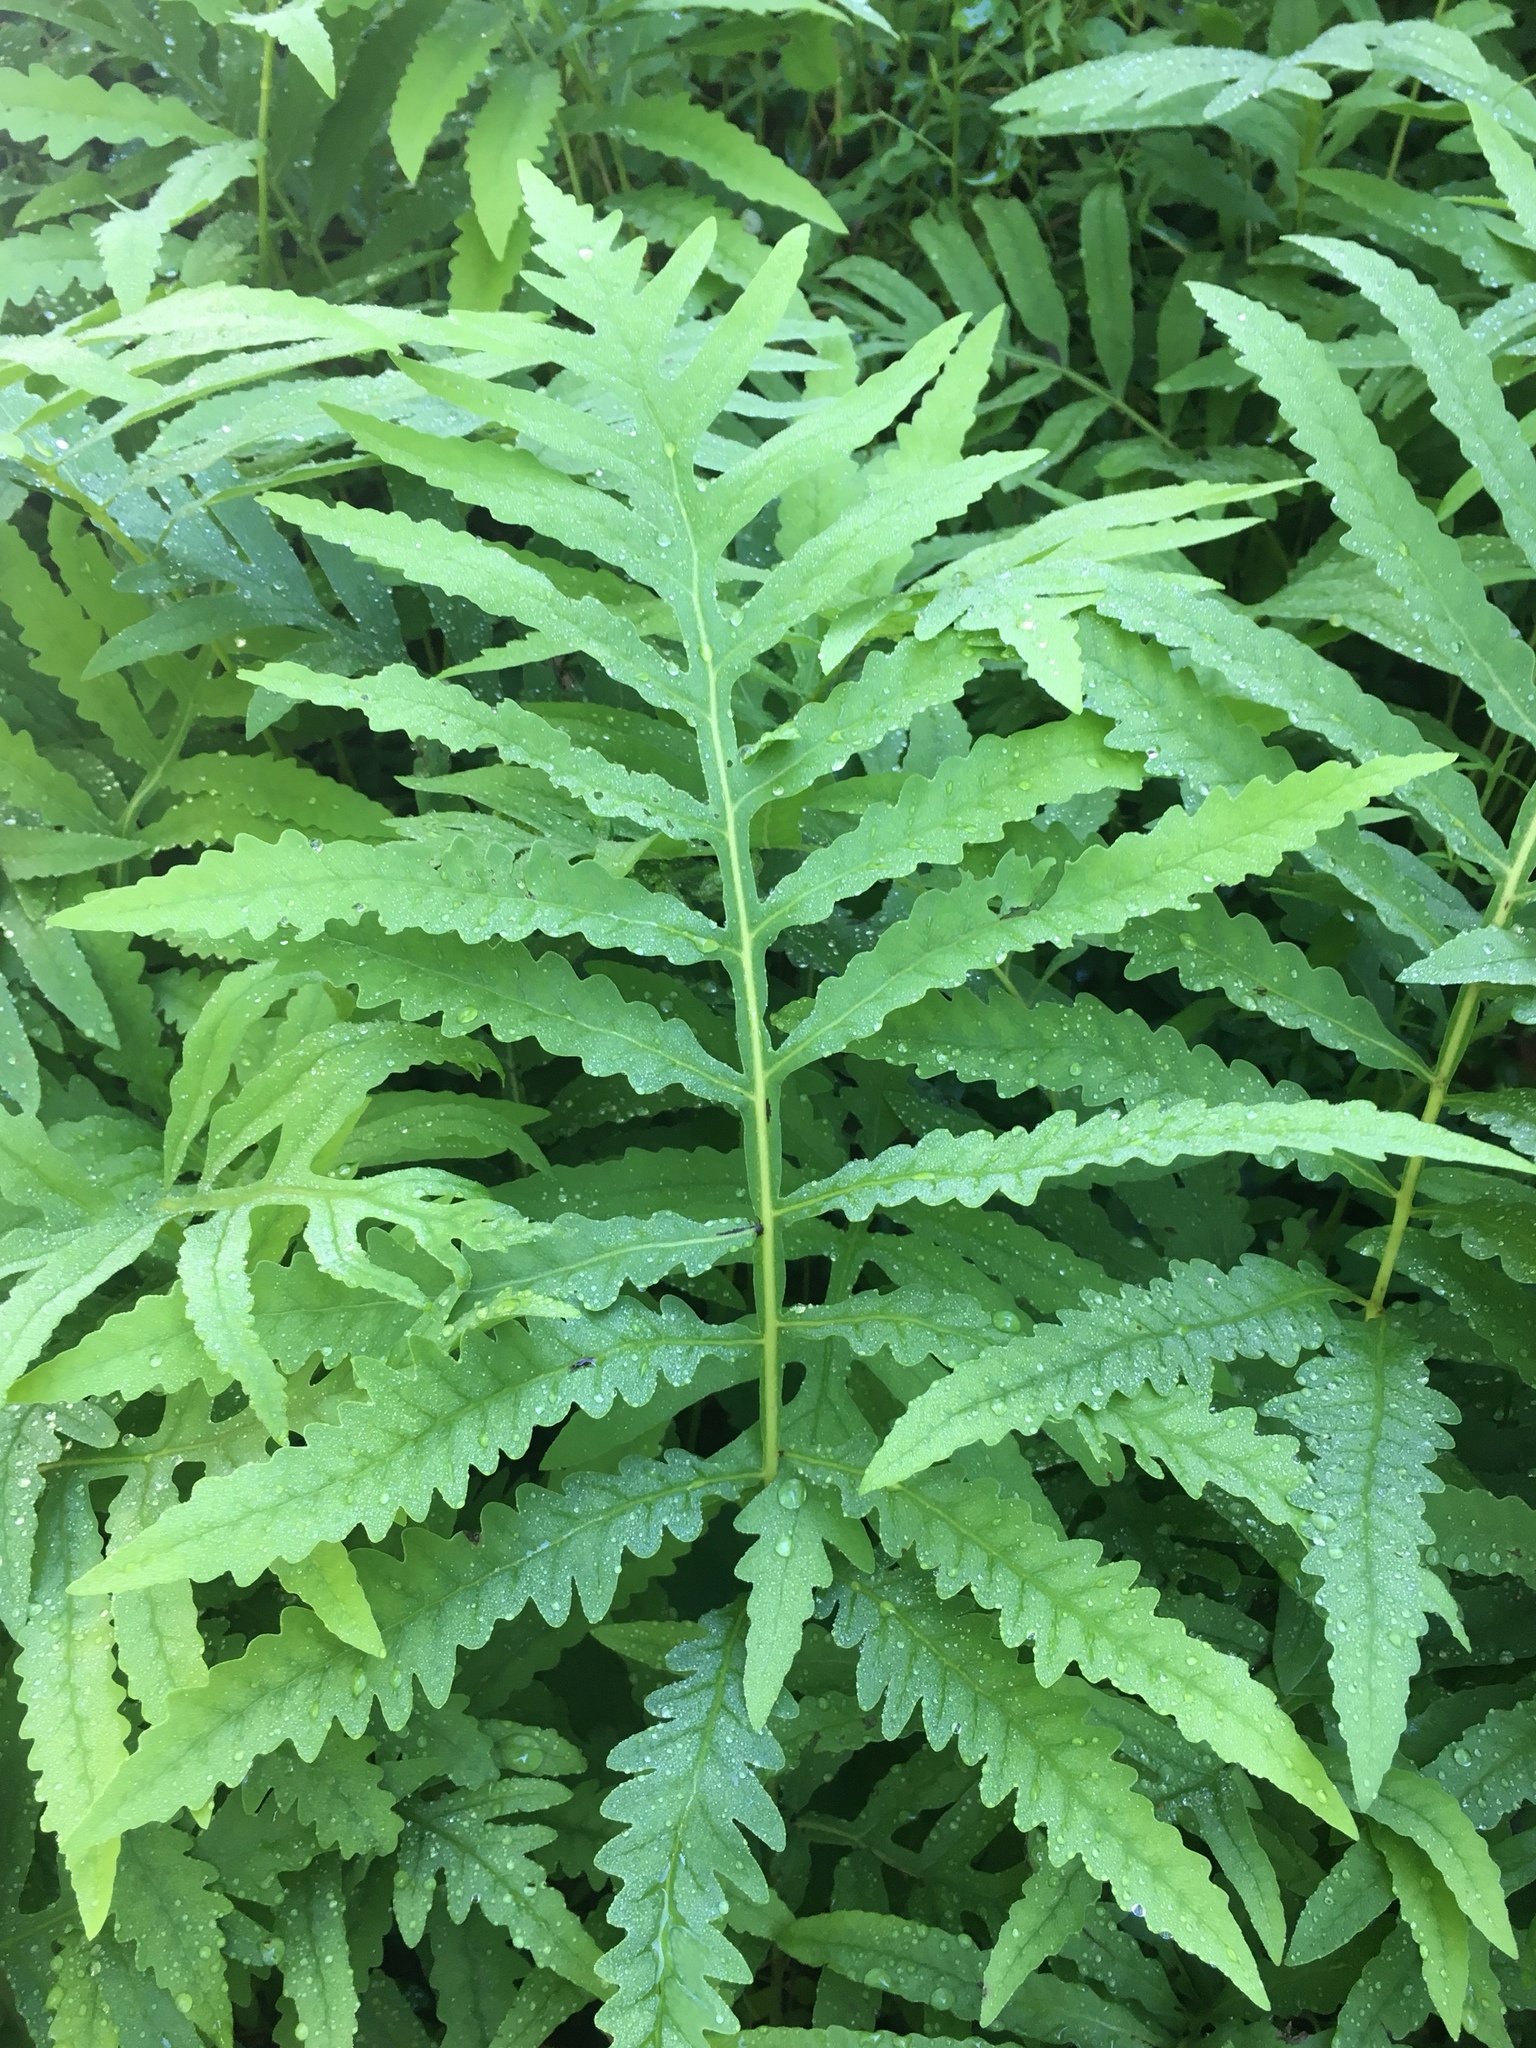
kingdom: Plantae
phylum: Tracheophyta
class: Polypodiopsida
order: Polypodiales
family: Onocleaceae
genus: Onoclea
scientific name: Onoclea sensibilis
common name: Sensitive fern
